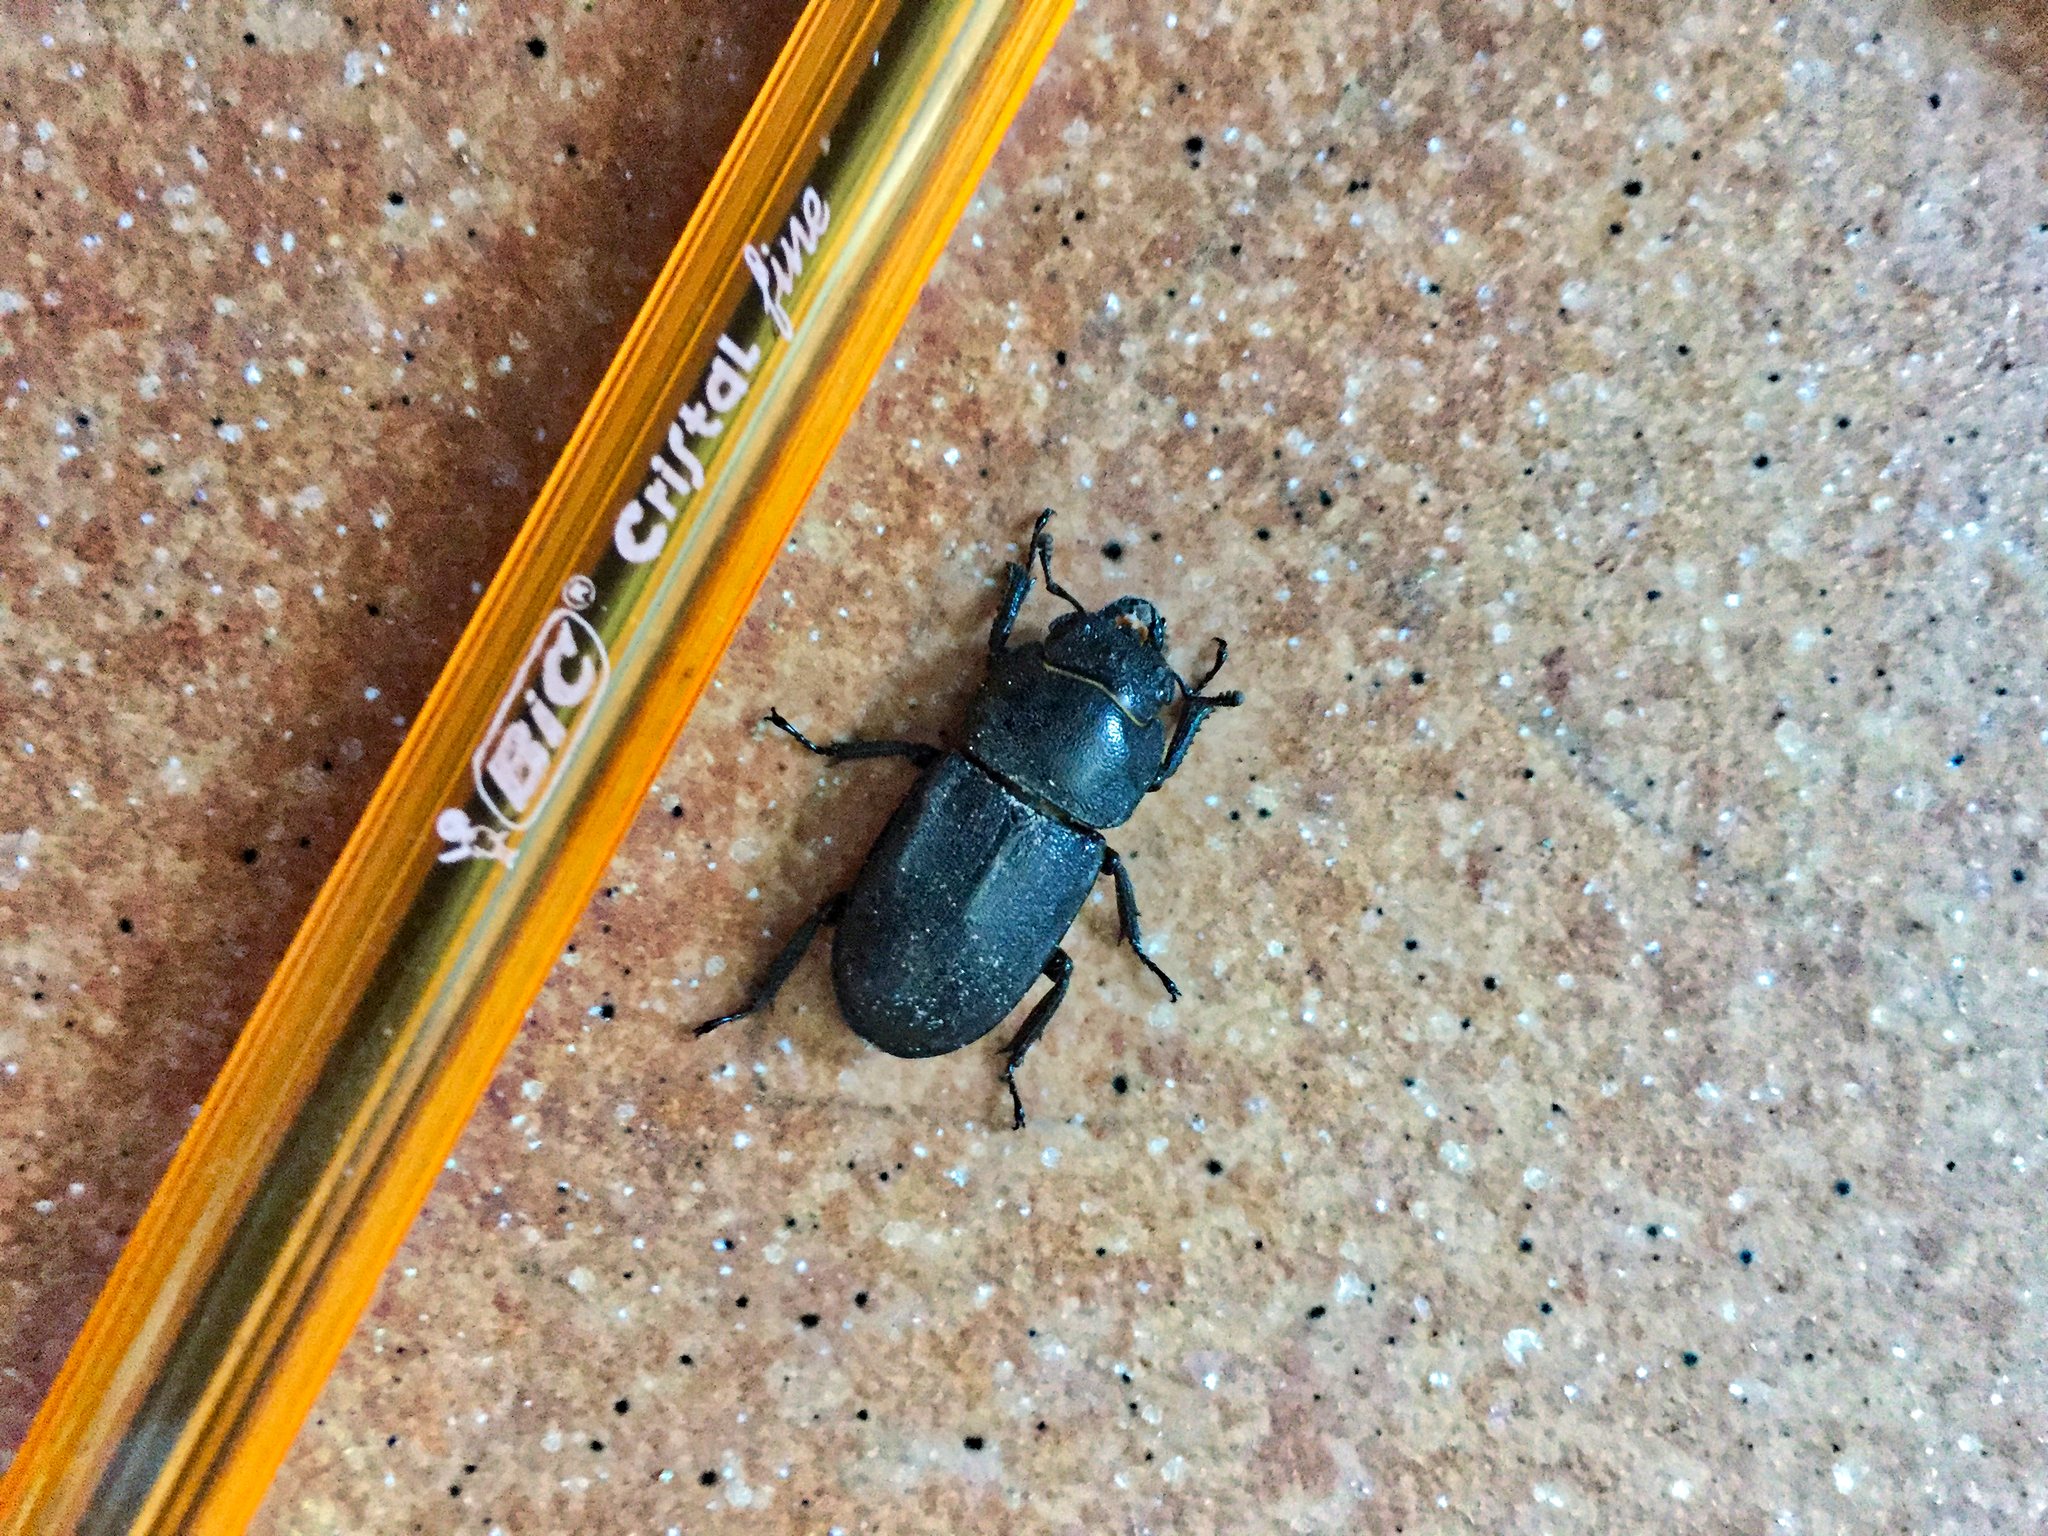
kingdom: Animalia
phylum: Arthropoda
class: Insecta
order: Coleoptera
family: Lucanidae
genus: Dorcus
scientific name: Dorcus parallelipipedus
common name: Lesser stag beetle
